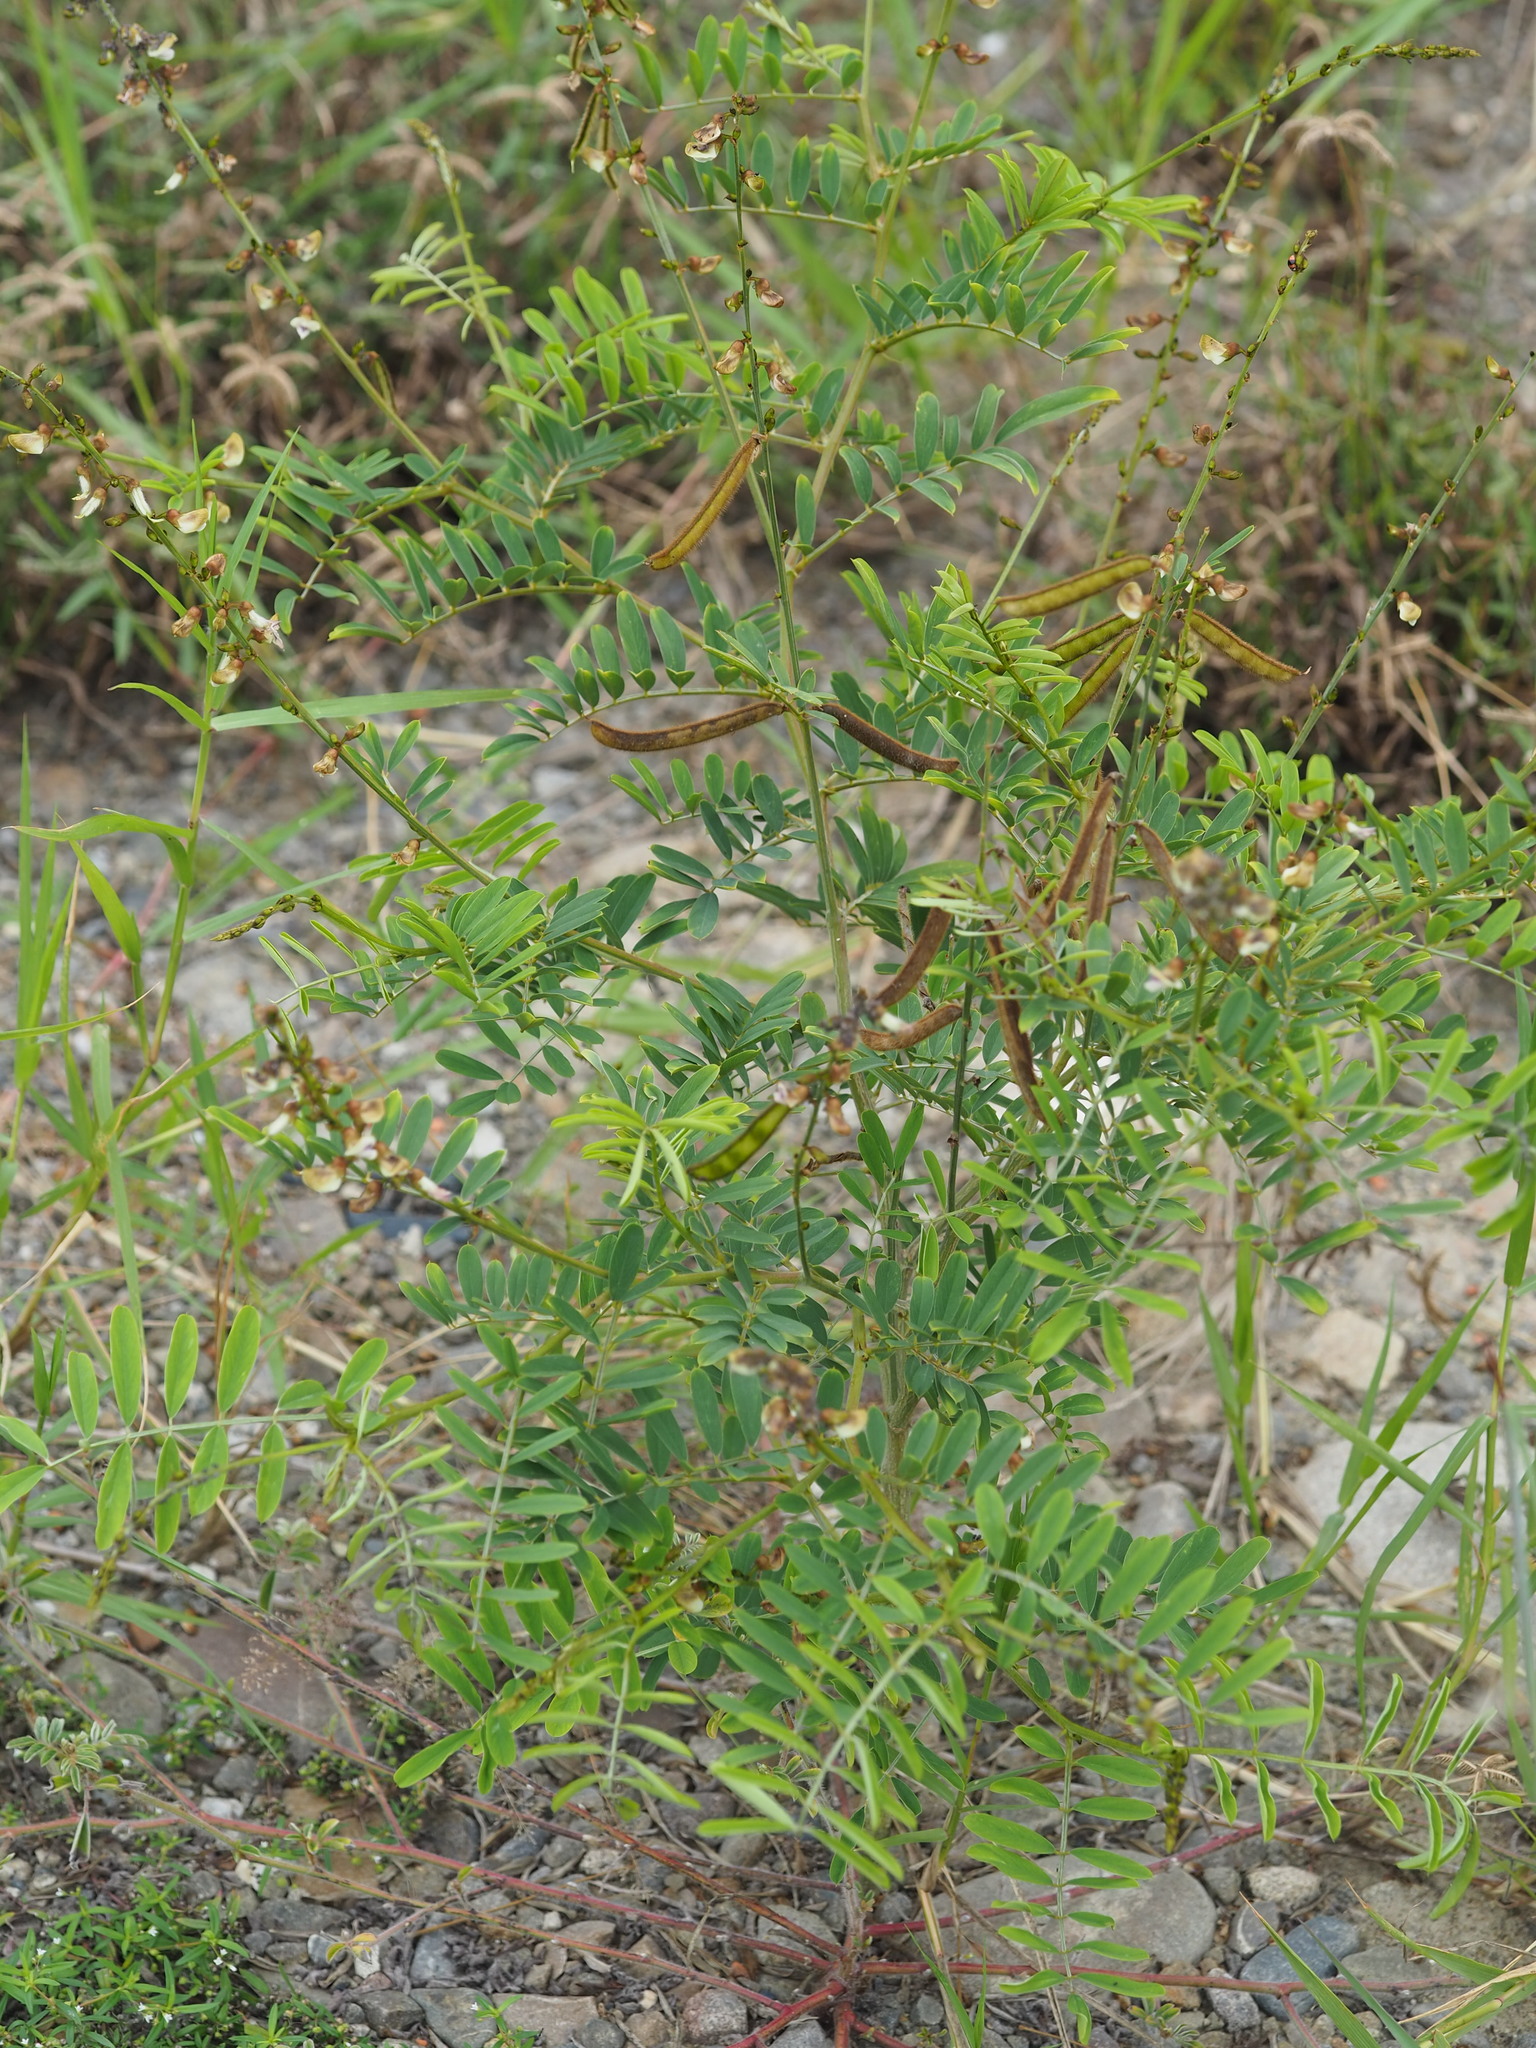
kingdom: Plantae
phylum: Tracheophyta
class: Magnoliopsida
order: Fabales
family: Fabaceae
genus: Tephrosia
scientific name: Tephrosia noctiflora
